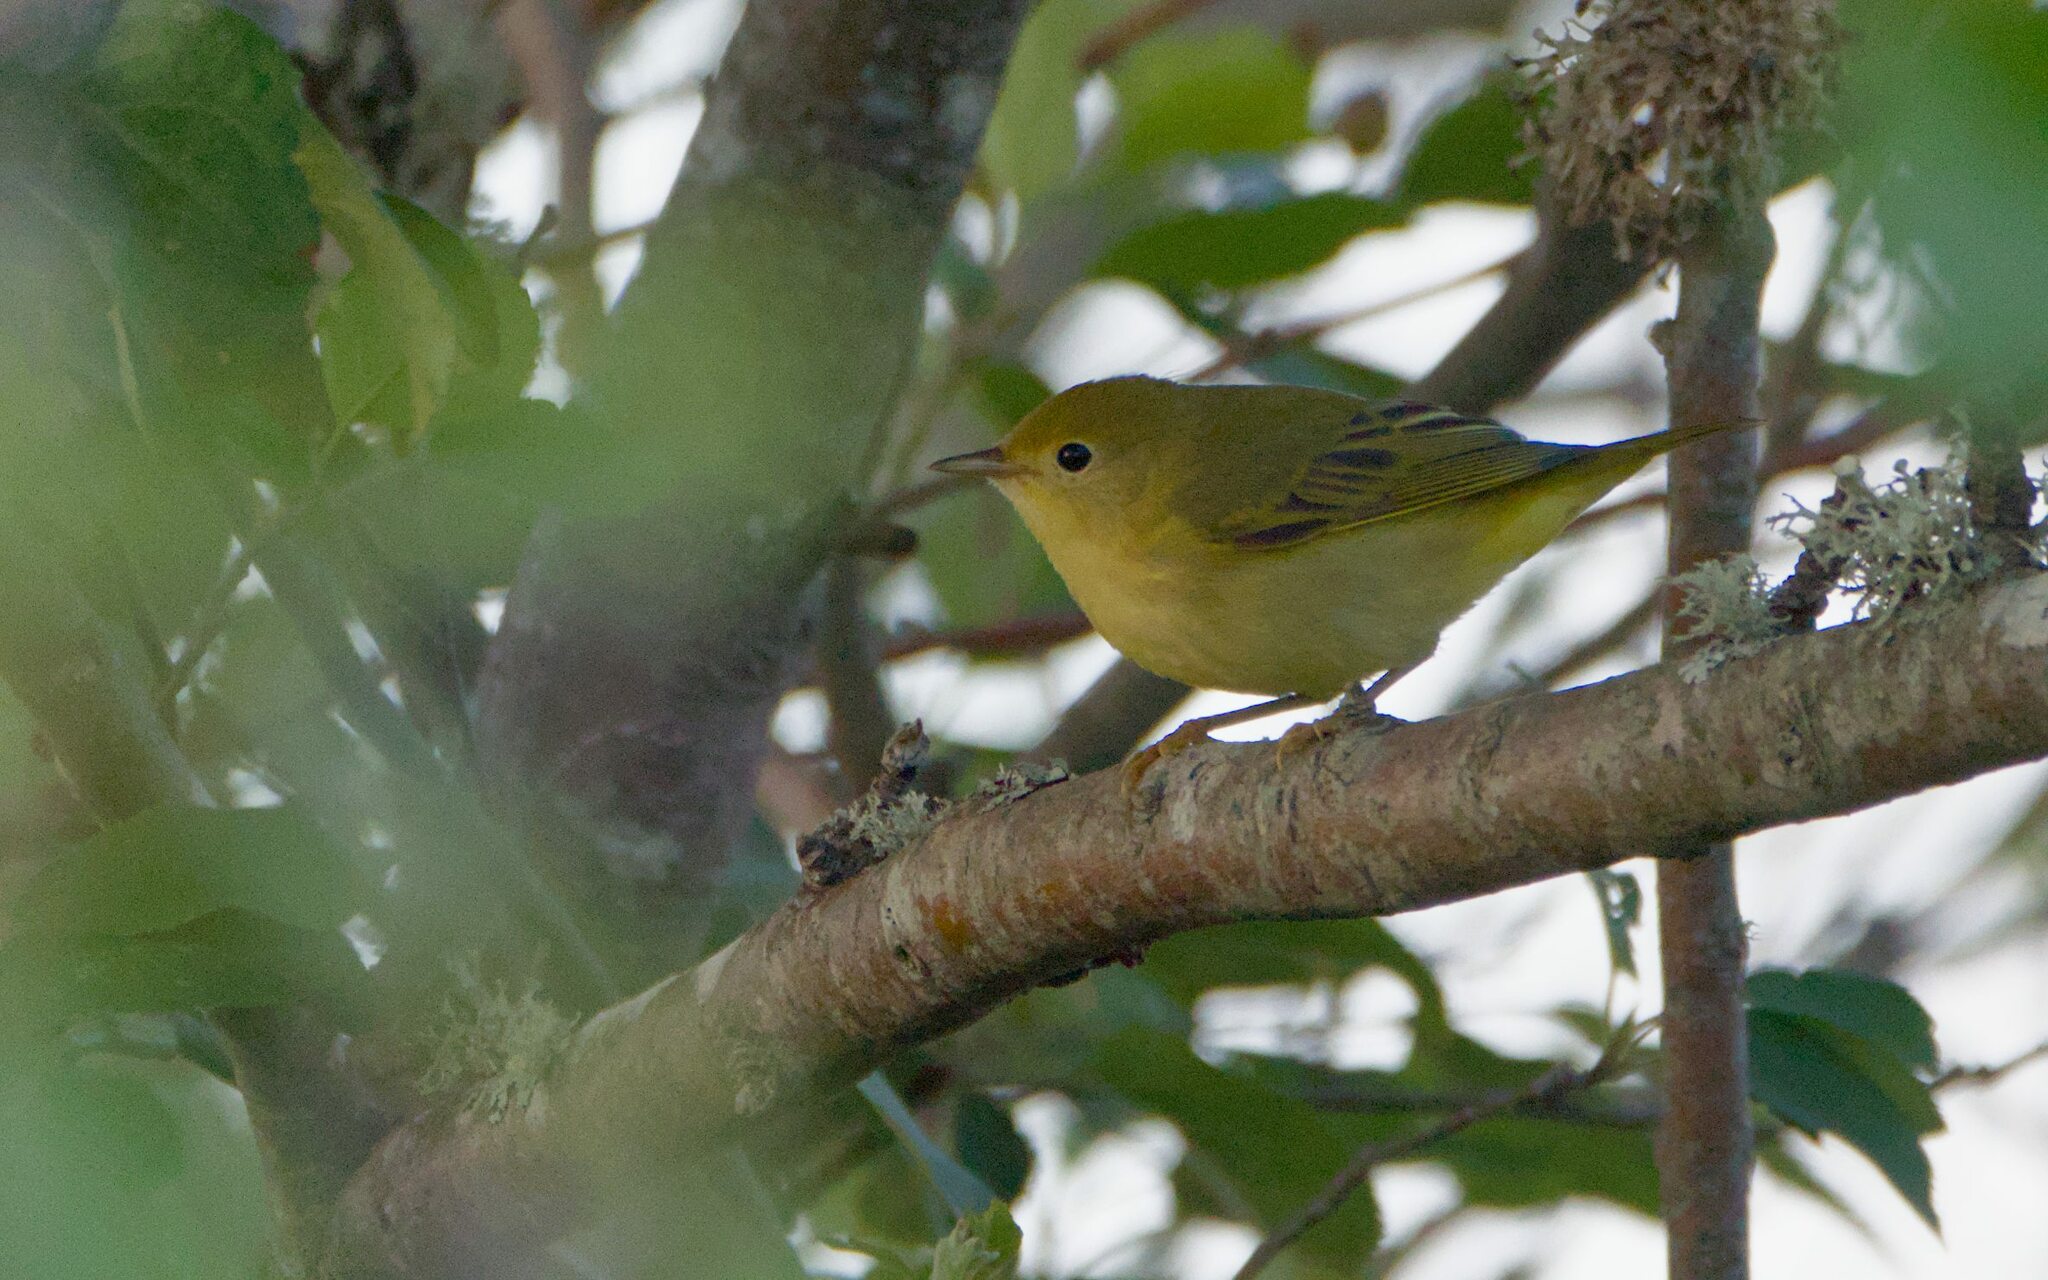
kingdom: Animalia
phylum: Chordata
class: Aves
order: Passeriformes
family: Parulidae
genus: Setophaga
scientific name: Setophaga petechia
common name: Yellow warbler
